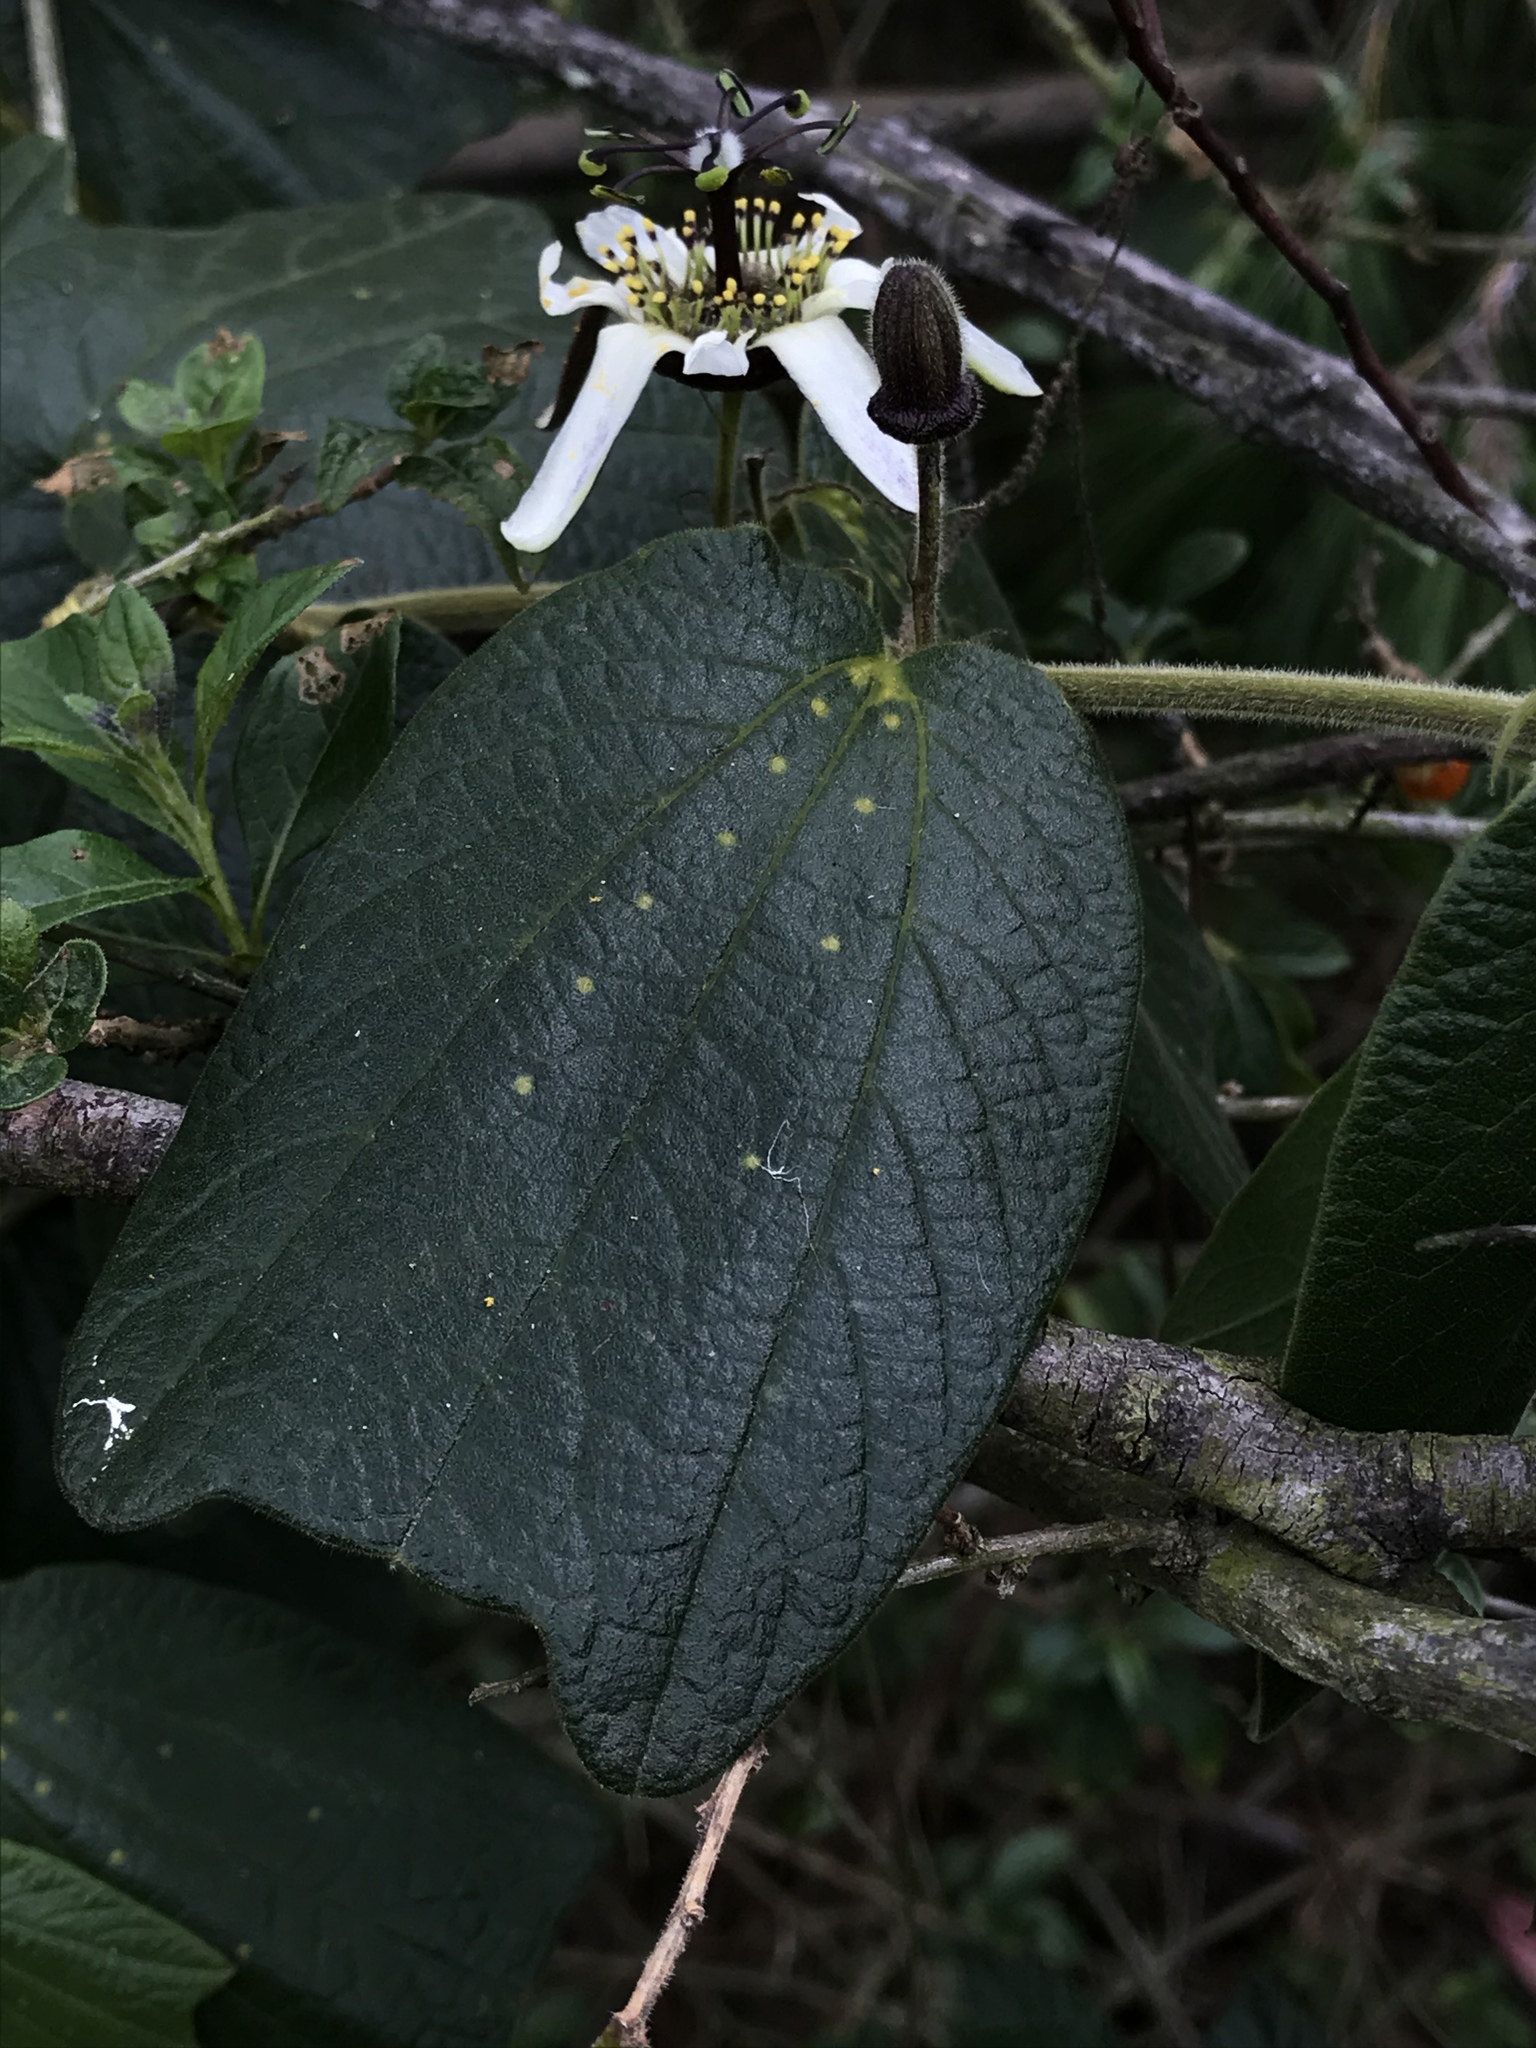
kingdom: Plantae
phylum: Tracheophyta
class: Magnoliopsida
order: Malpighiales
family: Passifloraceae
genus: Passiflora
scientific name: Passiflora bogotensis
